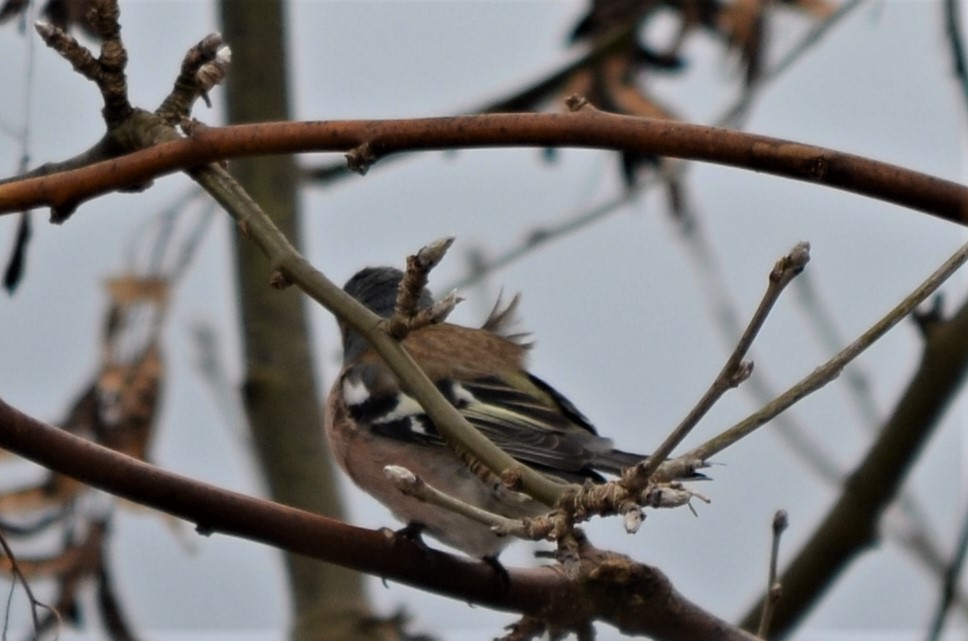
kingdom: Animalia
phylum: Chordata
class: Aves
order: Passeriformes
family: Fringillidae
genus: Fringilla
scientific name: Fringilla coelebs
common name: Common chaffinch
